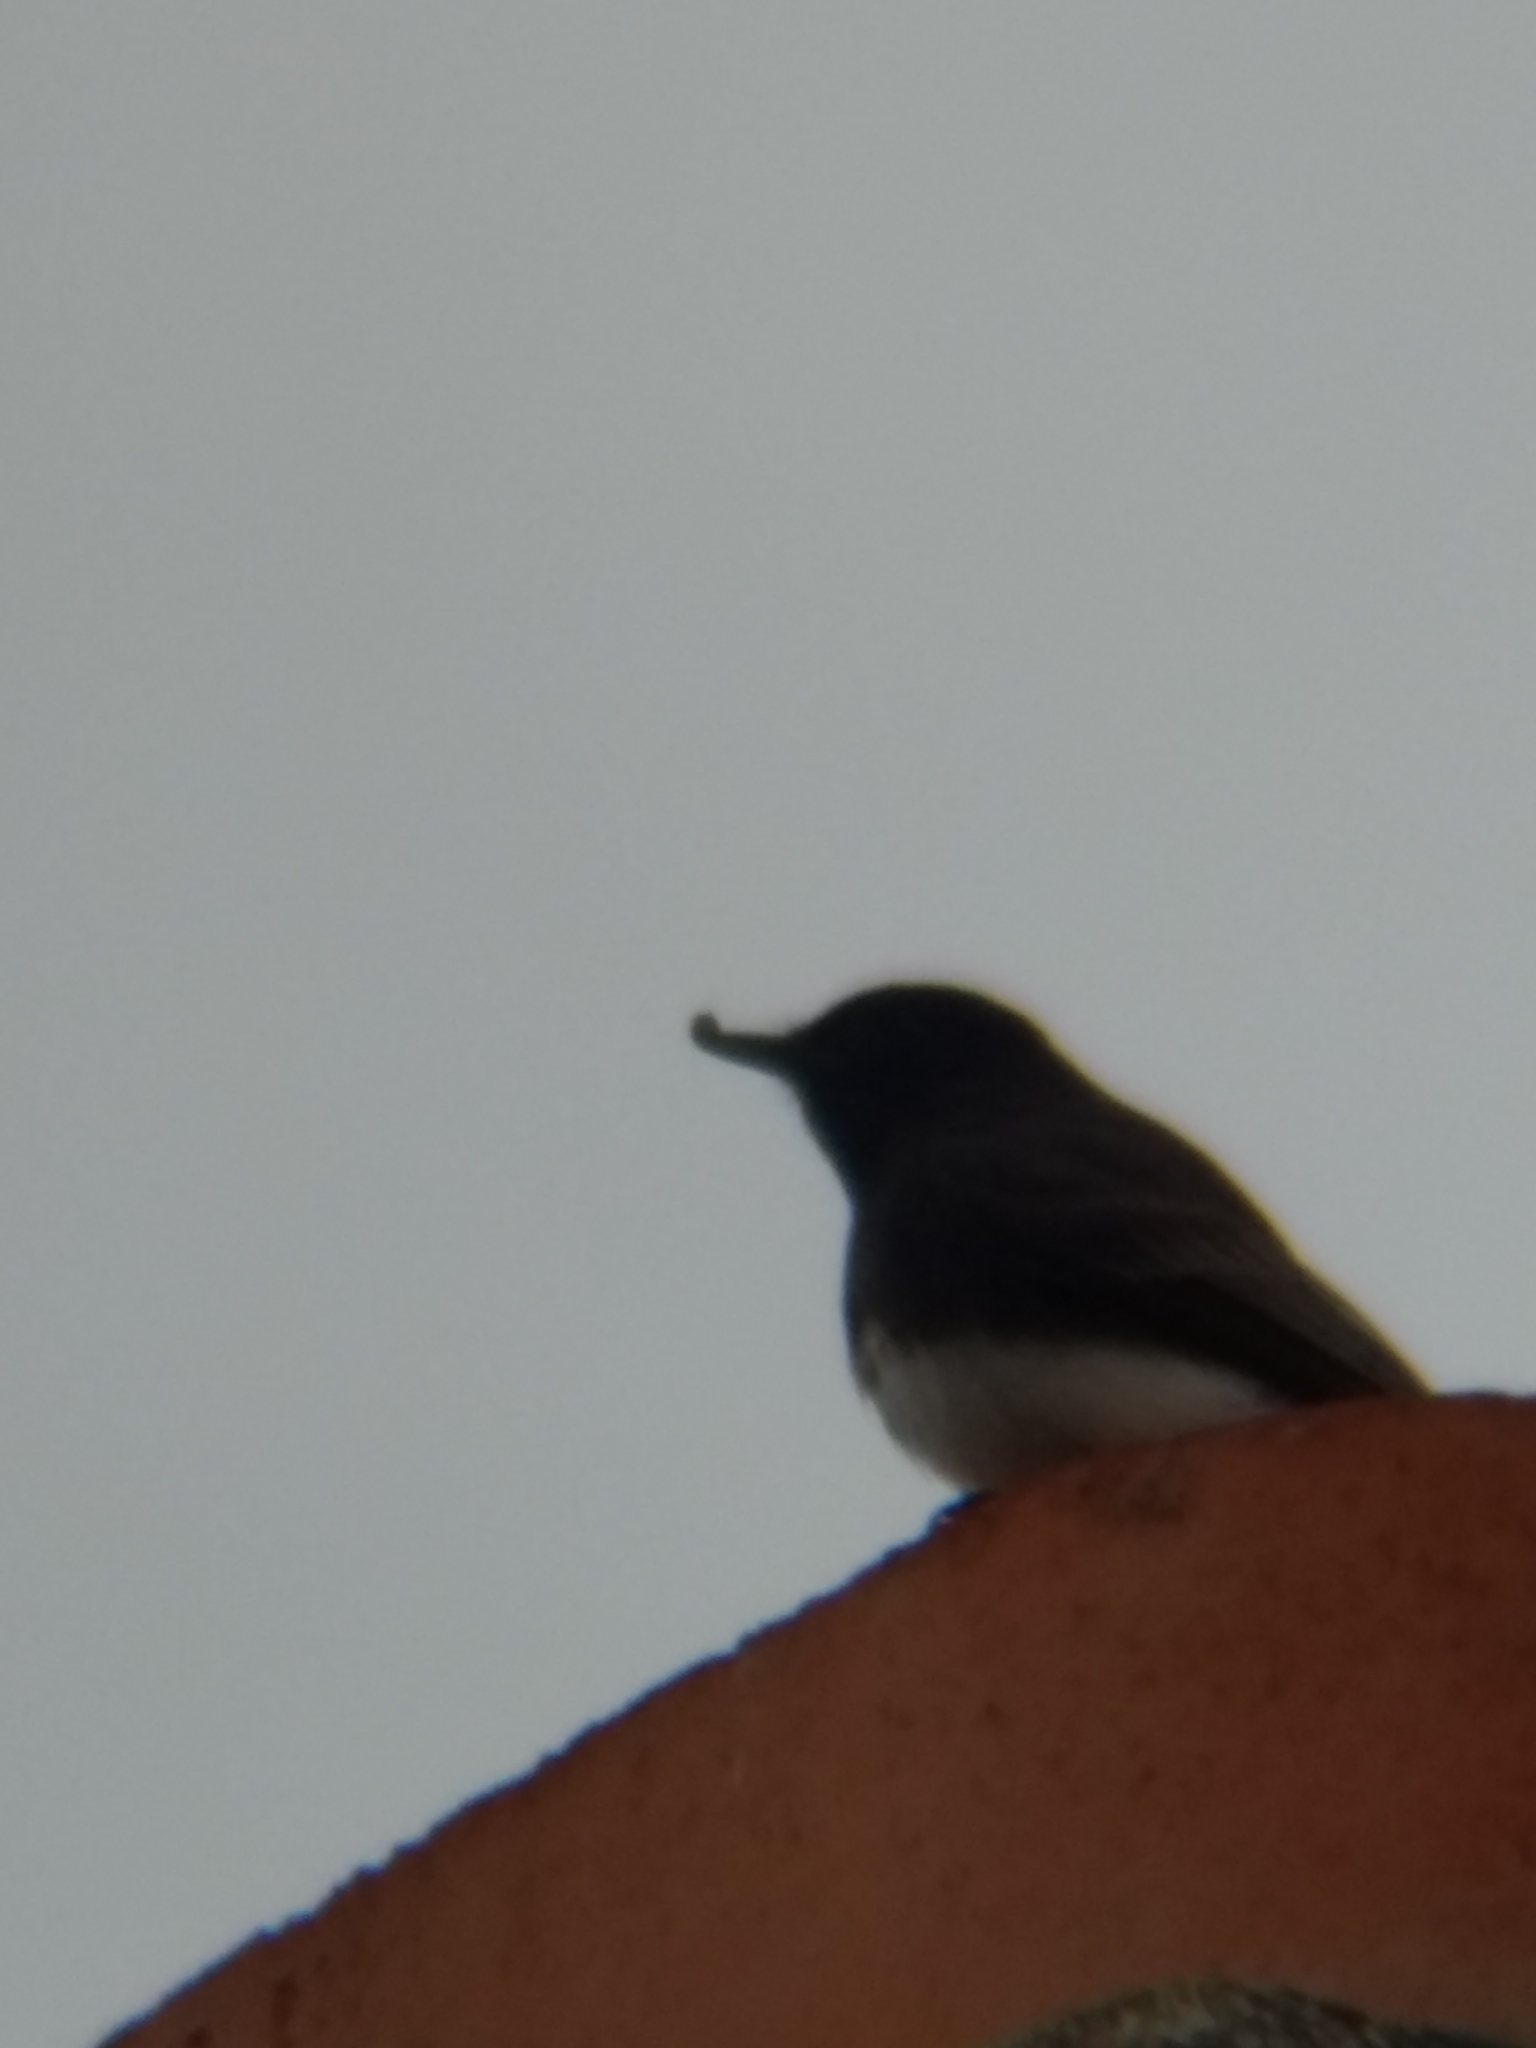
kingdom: Animalia
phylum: Chordata
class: Aves
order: Passeriformes
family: Tyrannidae
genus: Sayornis
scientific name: Sayornis nigricans
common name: Black phoebe
